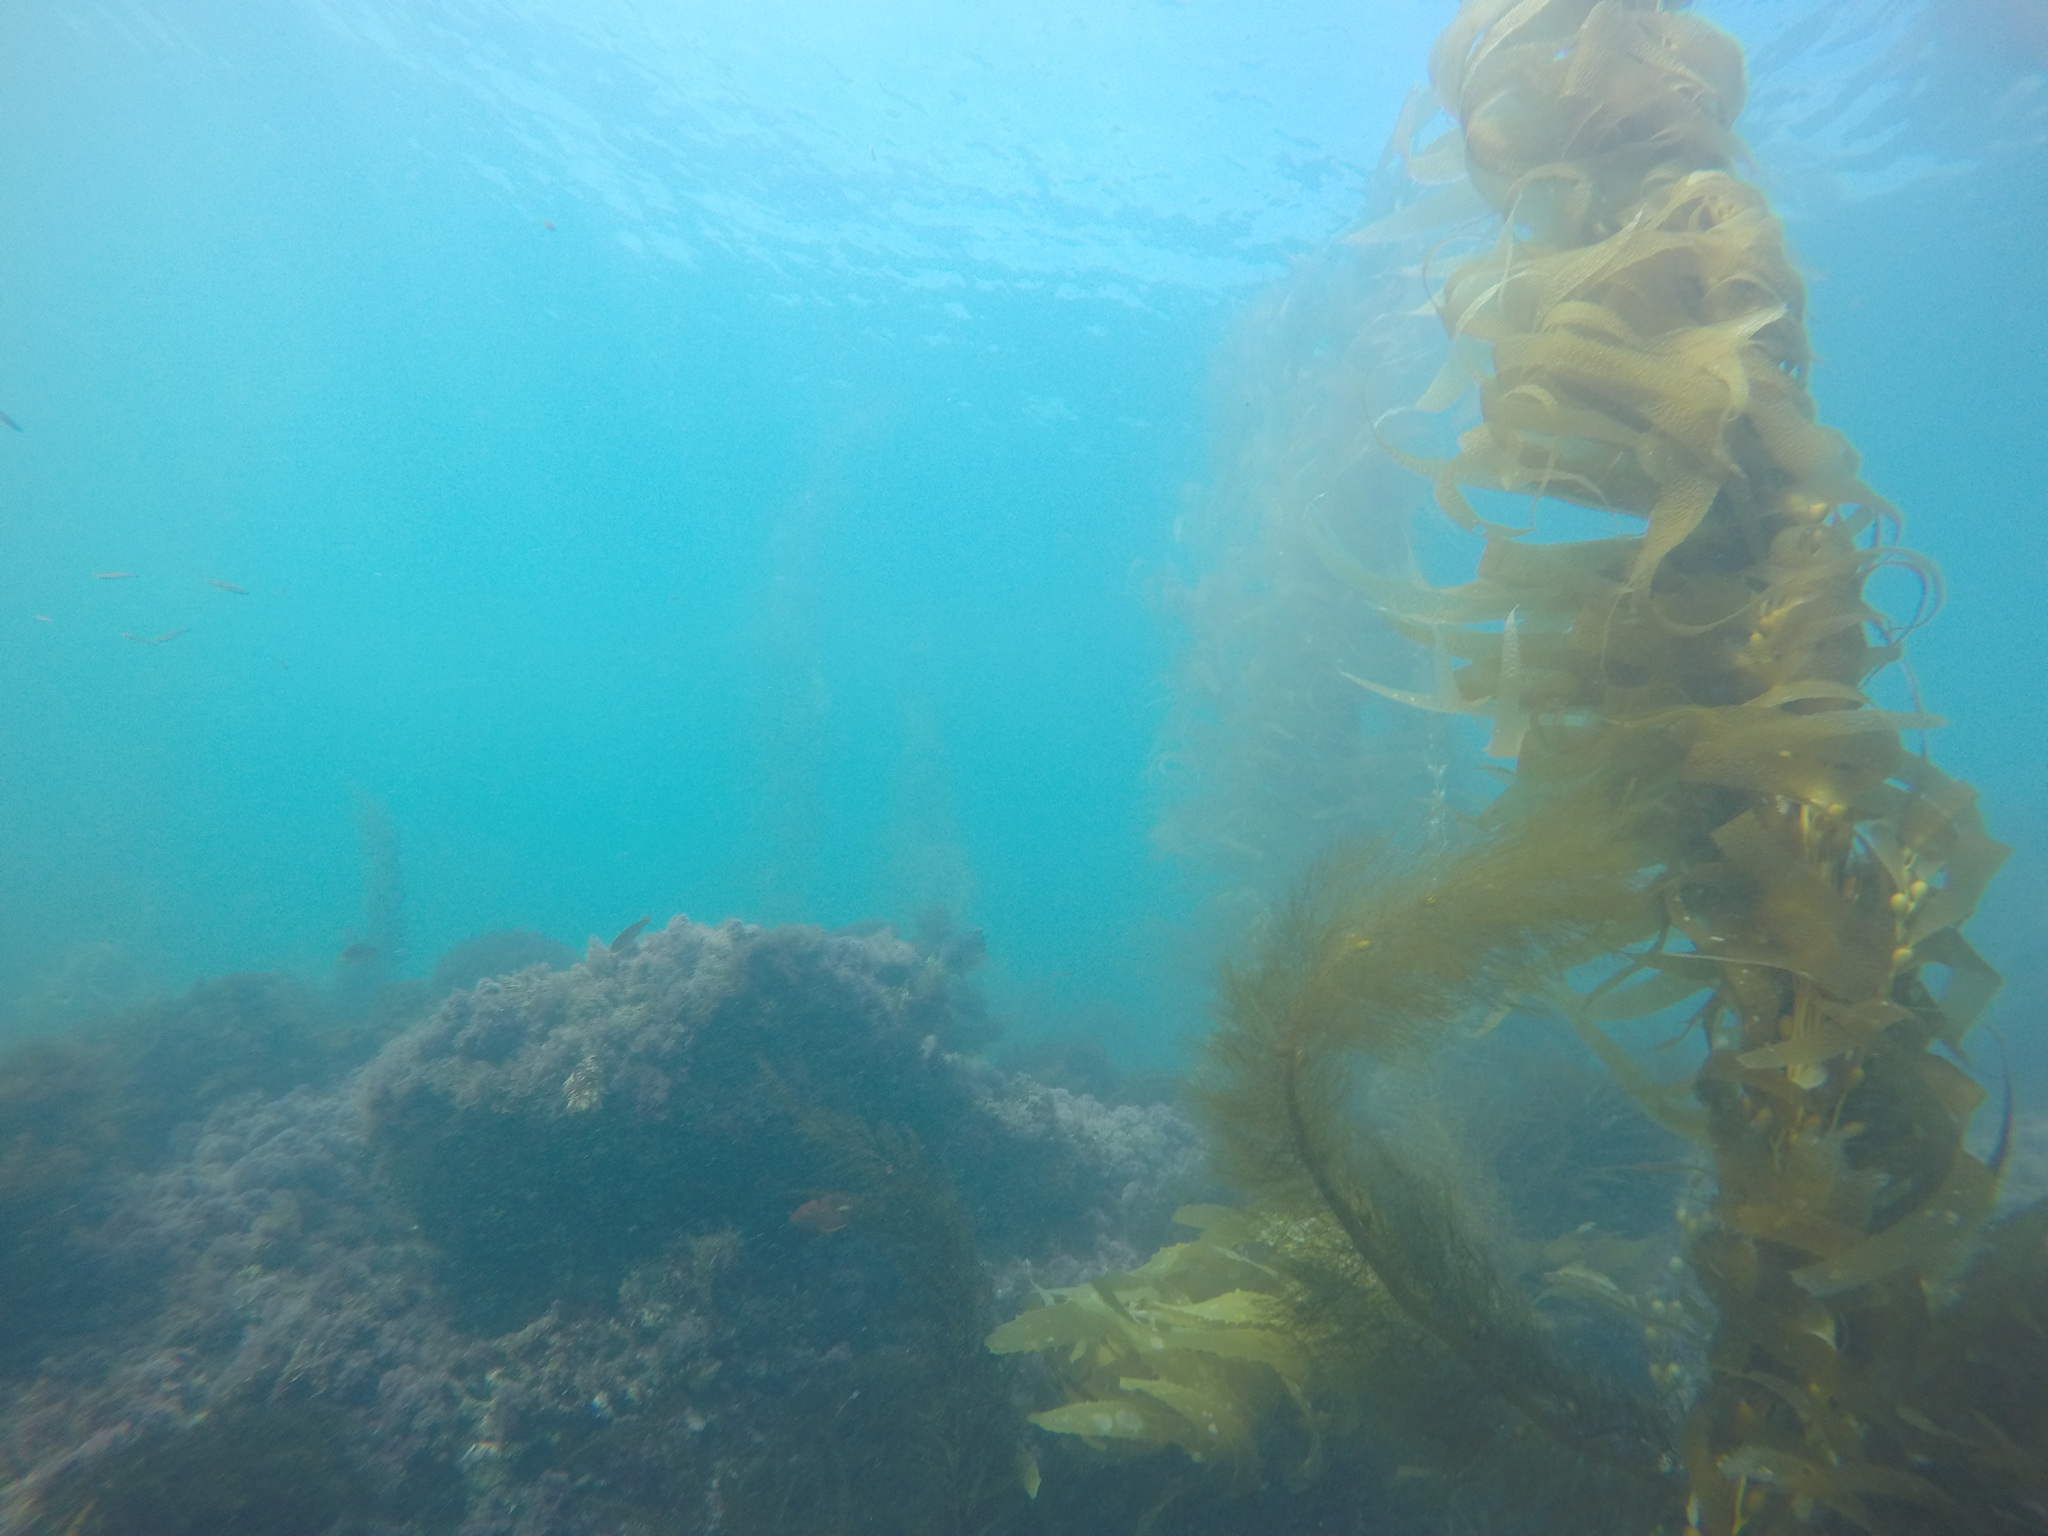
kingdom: Chromista
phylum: Ochrophyta
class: Phaeophyceae
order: Laminariales
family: Laminariaceae
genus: Macrocystis
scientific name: Macrocystis pyrifera
